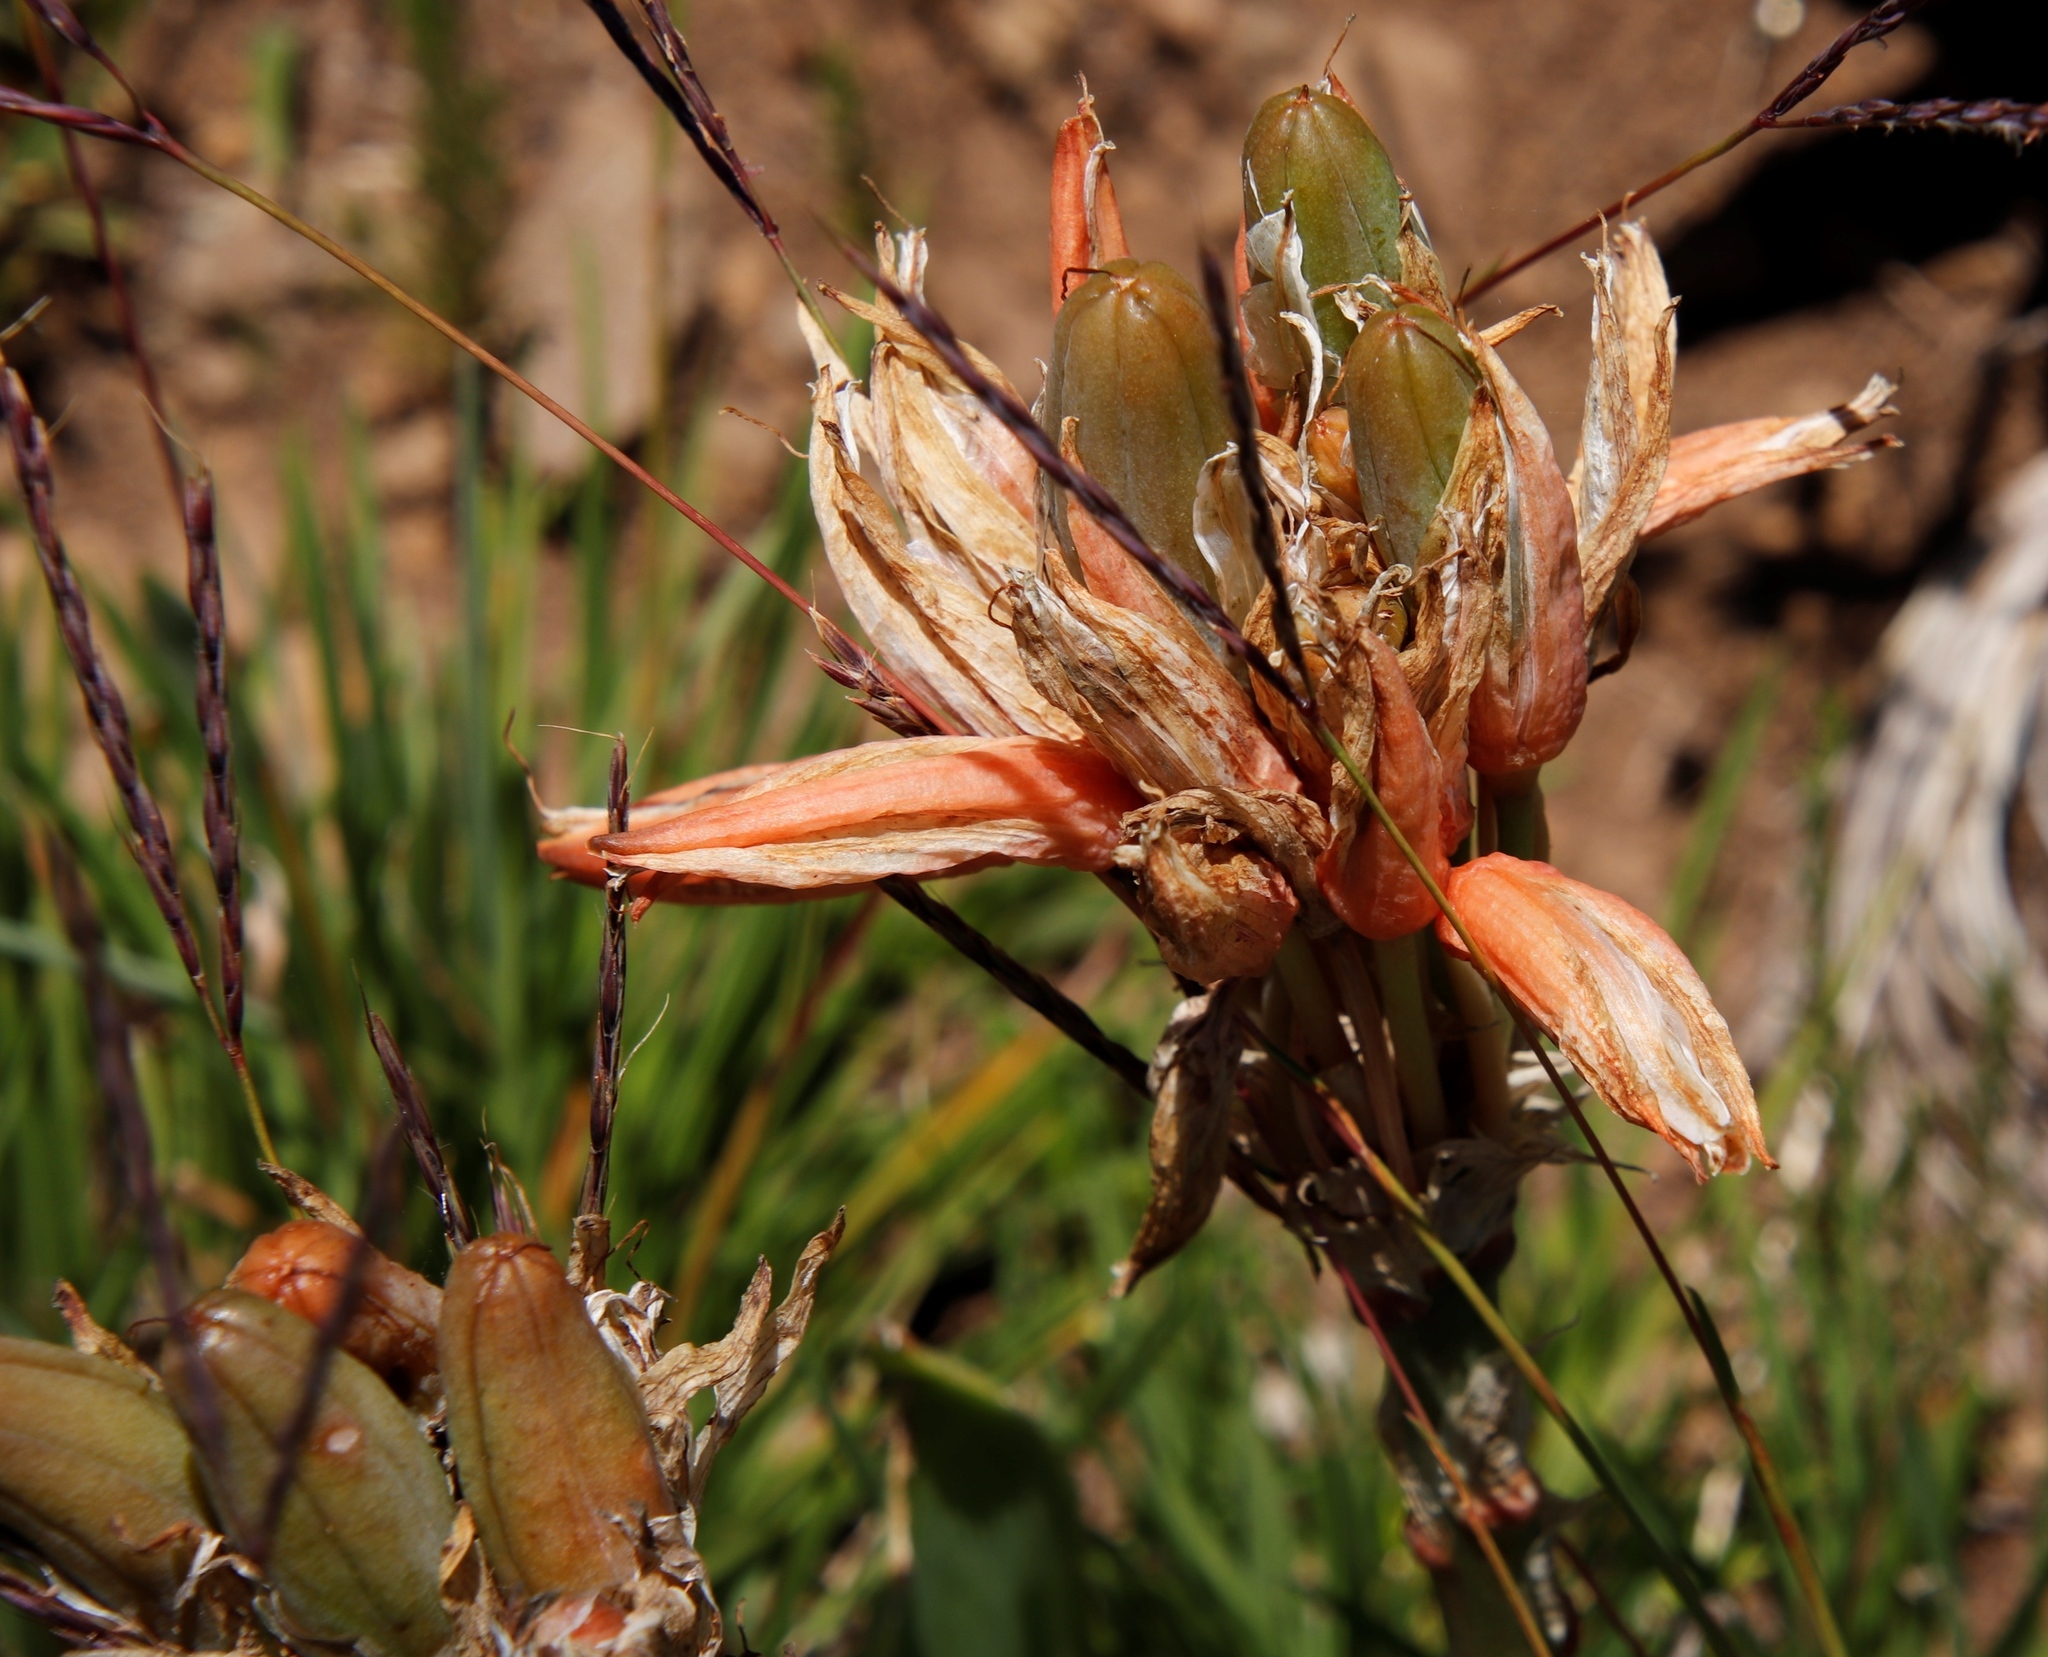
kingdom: Plantae
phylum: Tracheophyta
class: Liliopsida
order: Asparagales
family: Asphodelaceae
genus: Aloe
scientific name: Aloe ecklonis
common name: Ecklon's aloe
